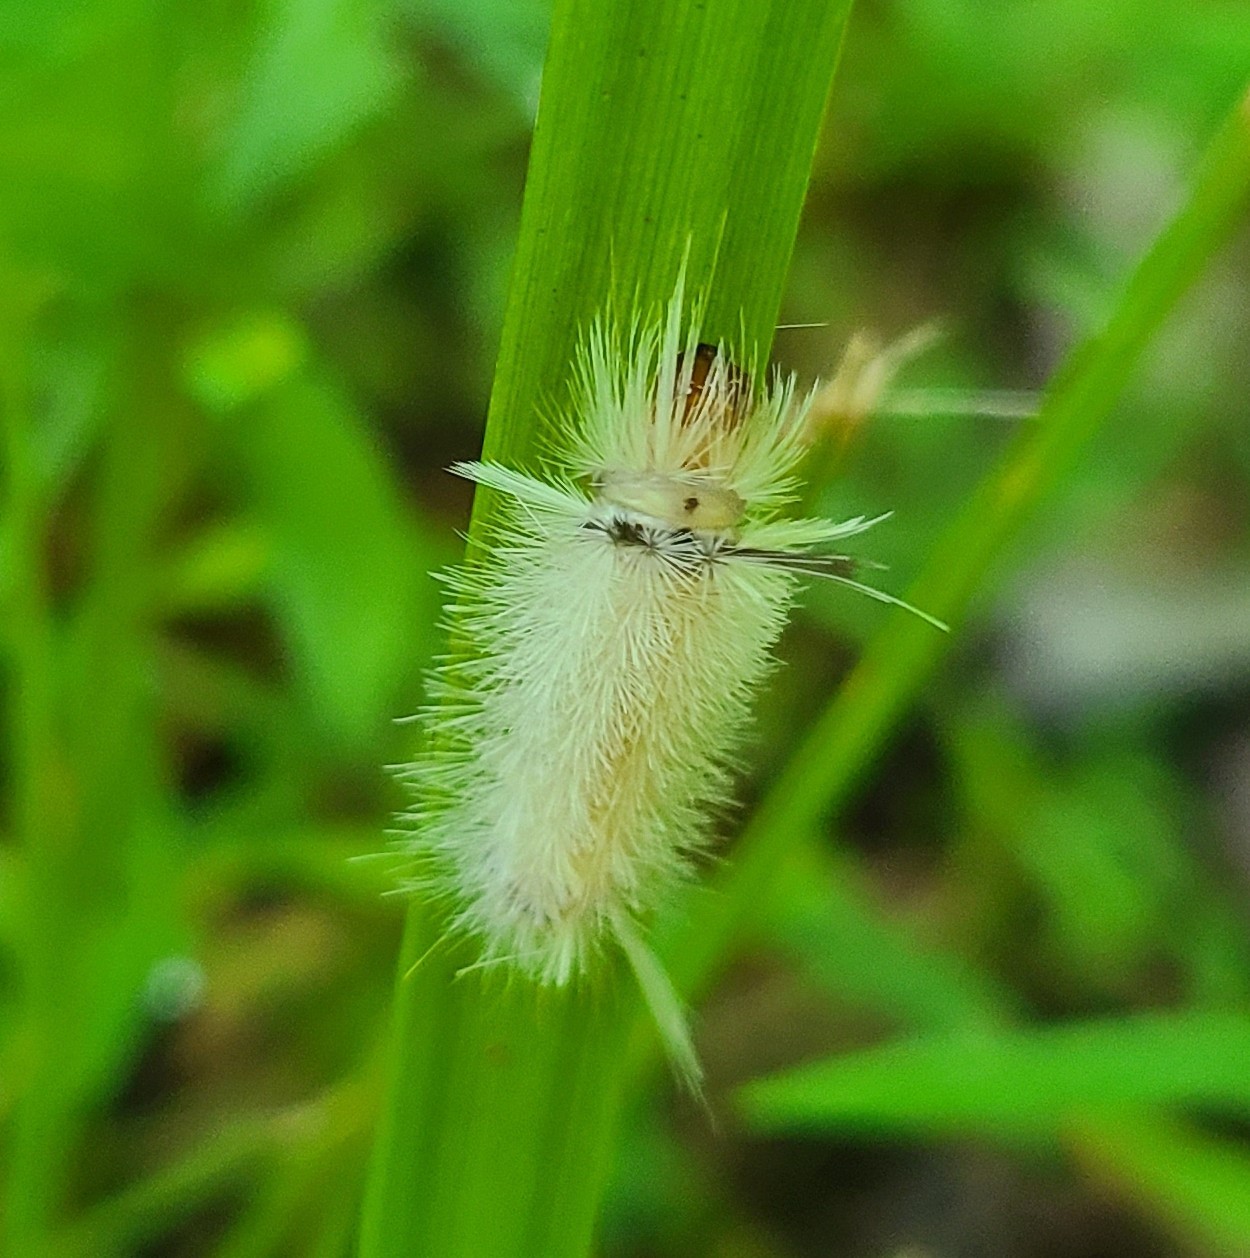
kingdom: Animalia
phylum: Arthropoda
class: Insecta
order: Lepidoptera
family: Erebidae
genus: Halysidota
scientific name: Halysidota tessellaris
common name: Banded tussock moth
